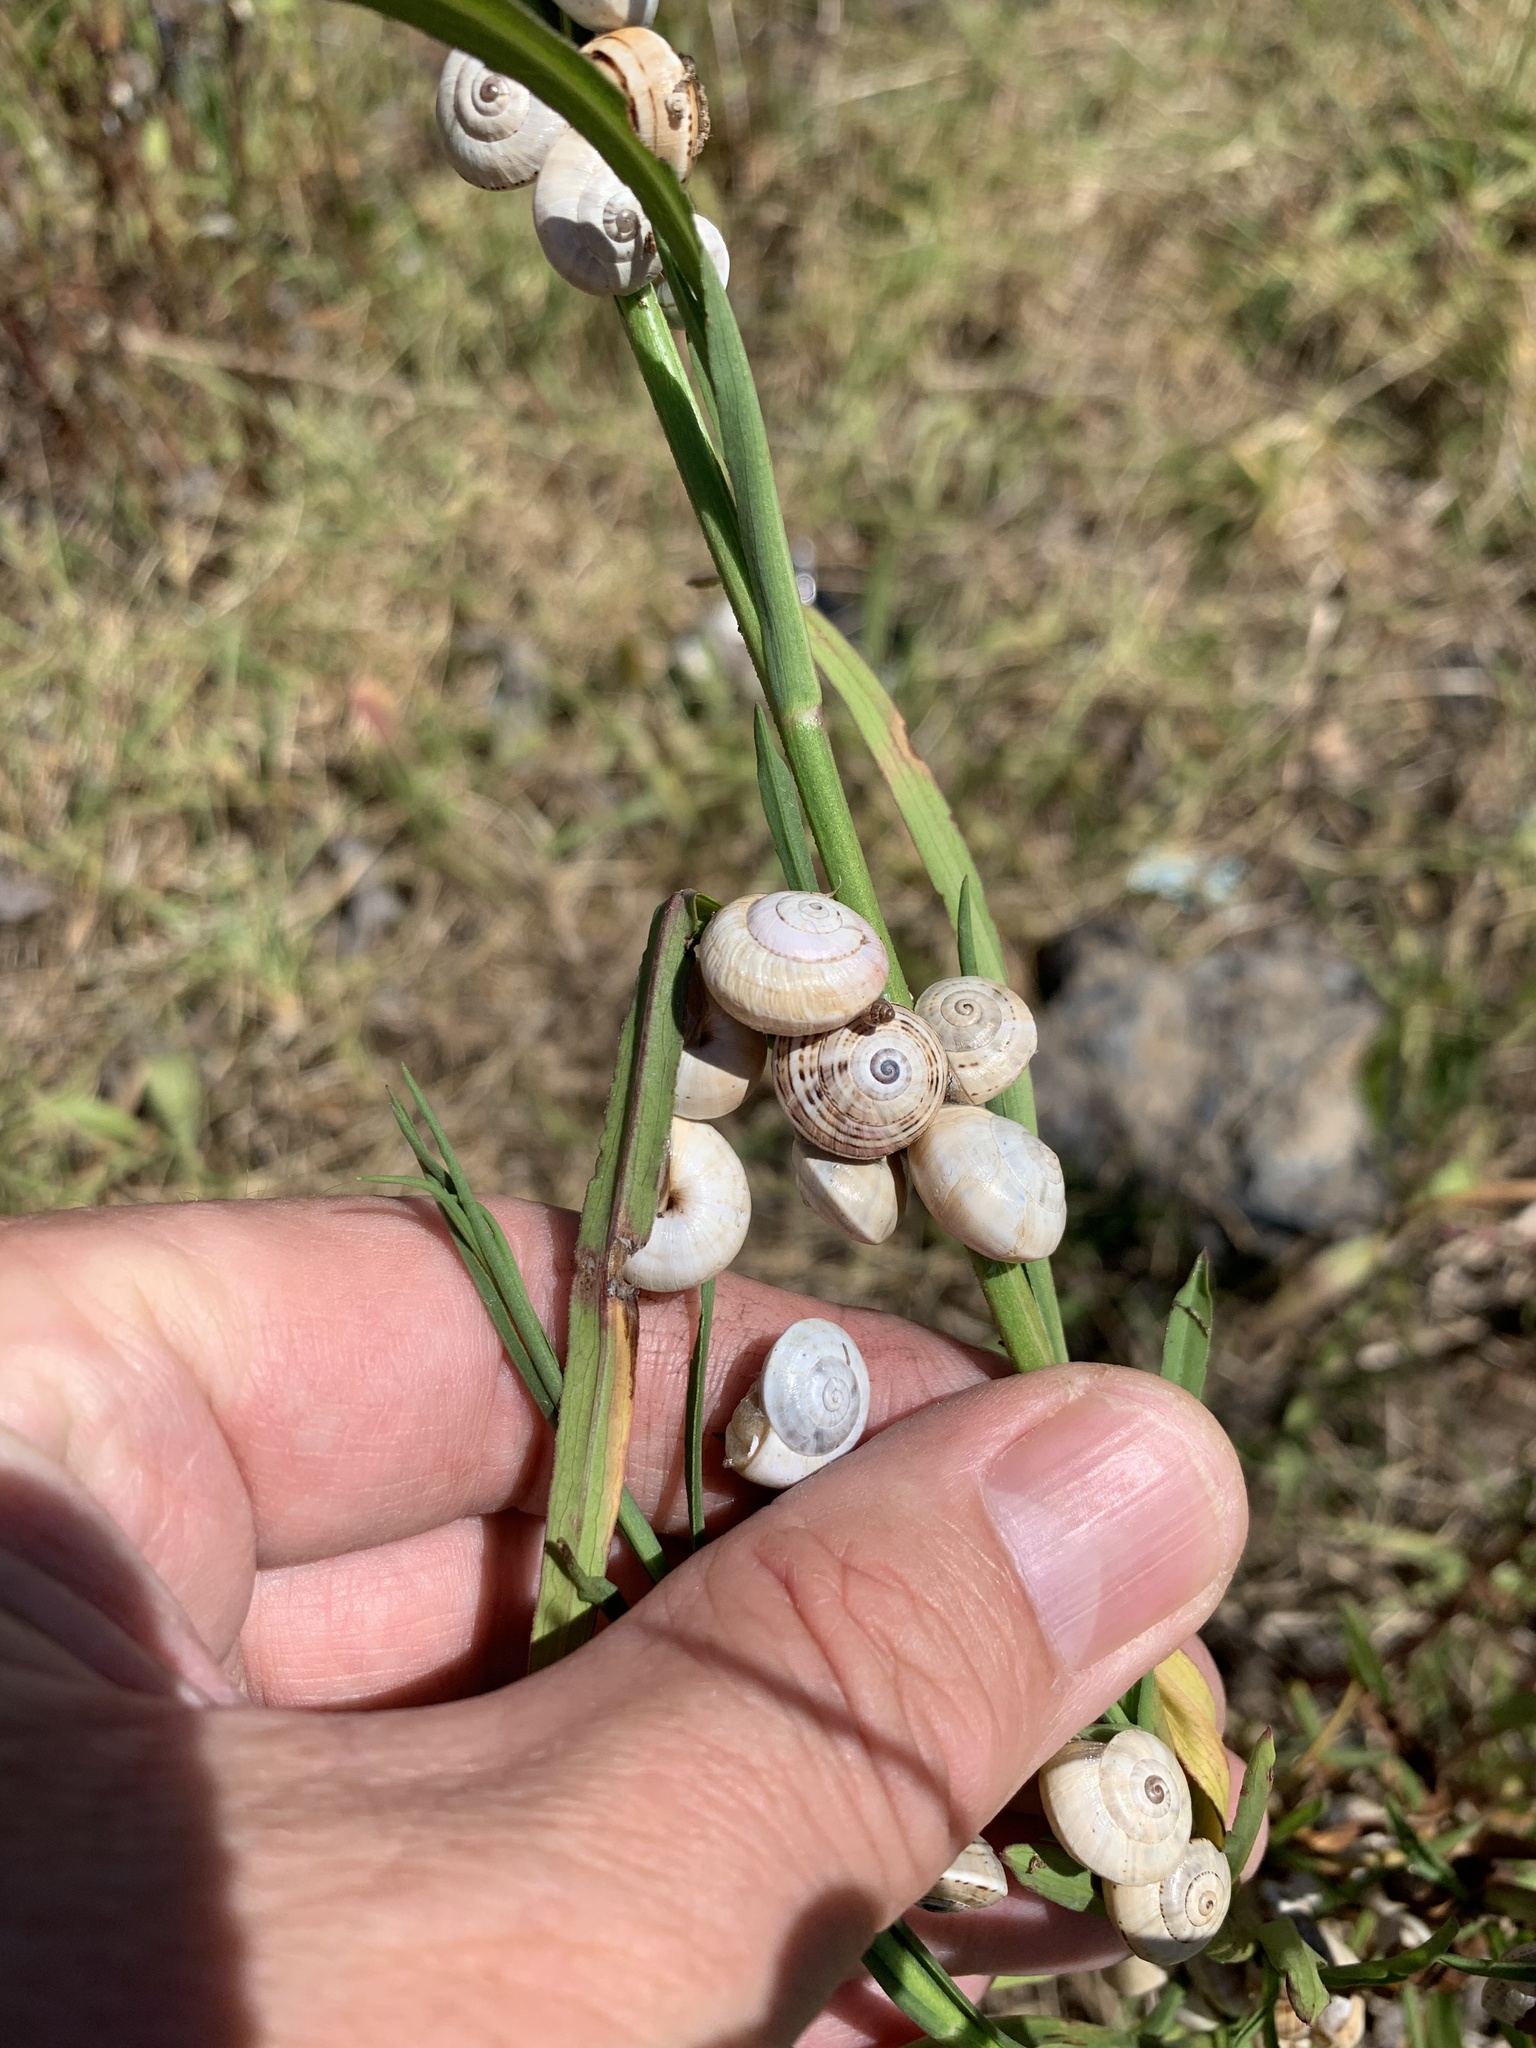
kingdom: Animalia
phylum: Mollusca
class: Gastropoda
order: Stylommatophora
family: Helicidae
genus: Theba
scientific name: Theba pisana
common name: White snail
